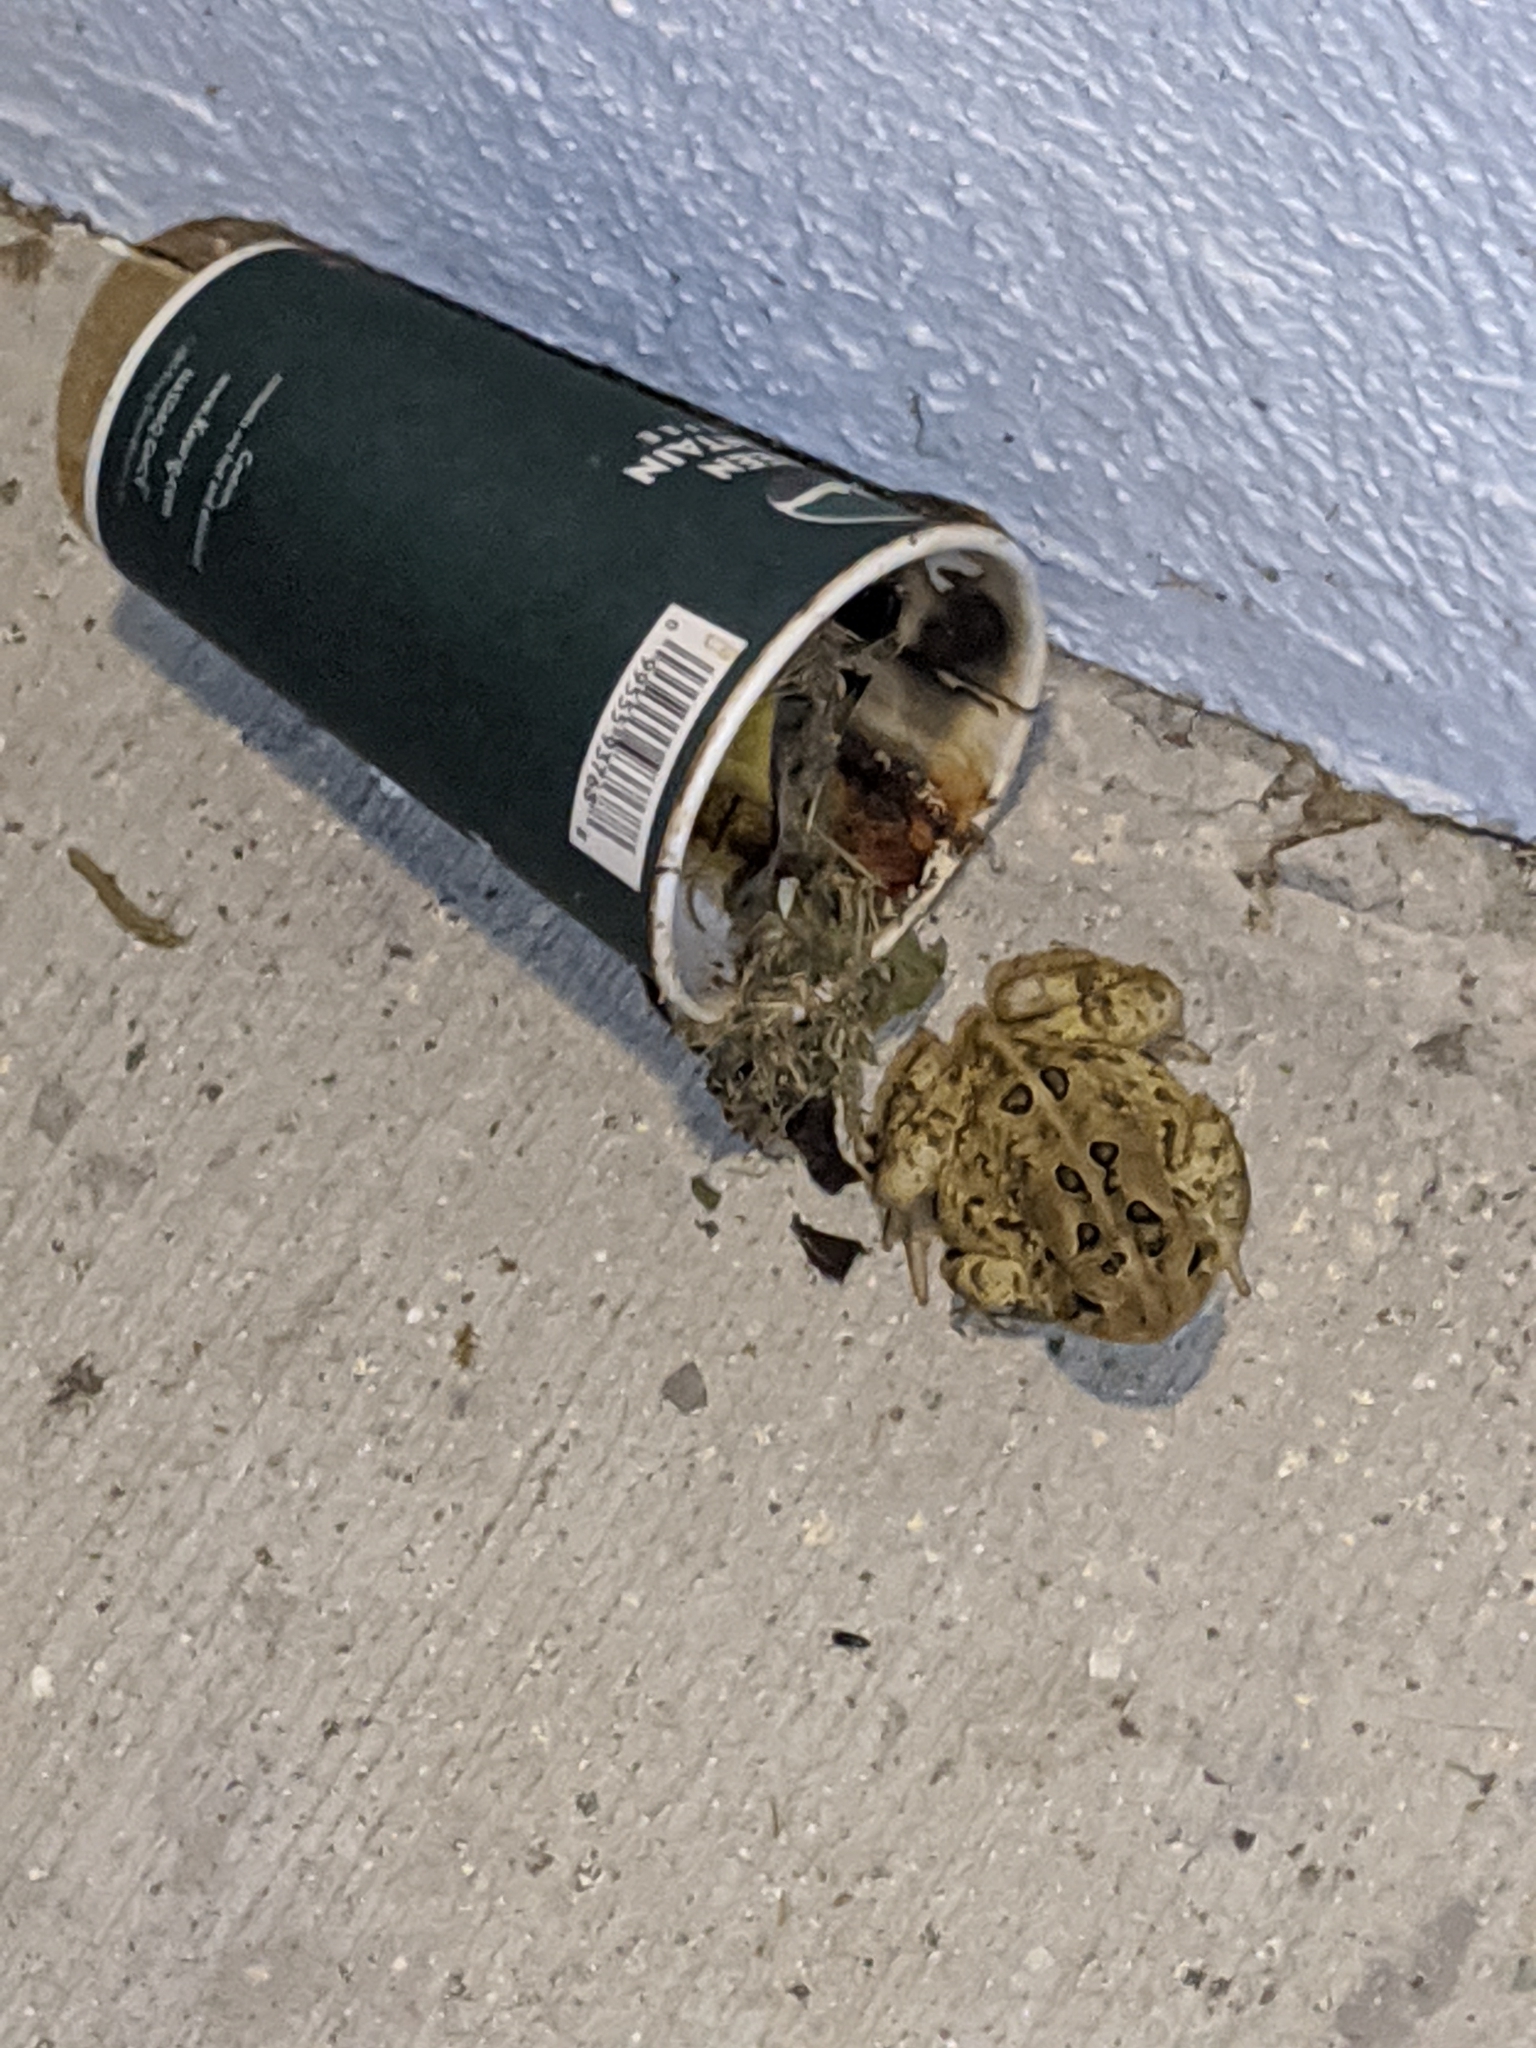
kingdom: Animalia
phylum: Chordata
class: Amphibia
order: Anura
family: Bufonidae
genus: Anaxyrus
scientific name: Anaxyrus americanus
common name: American toad
